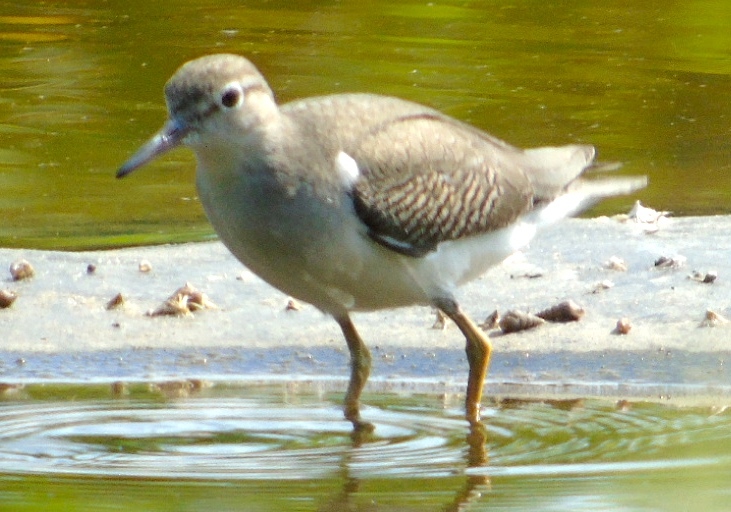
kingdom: Animalia
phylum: Chordata
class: Aves
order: Charadriiformes
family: Scolopacidae
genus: Actitis
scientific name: Actitis macularius
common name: Spotted sandpiper
